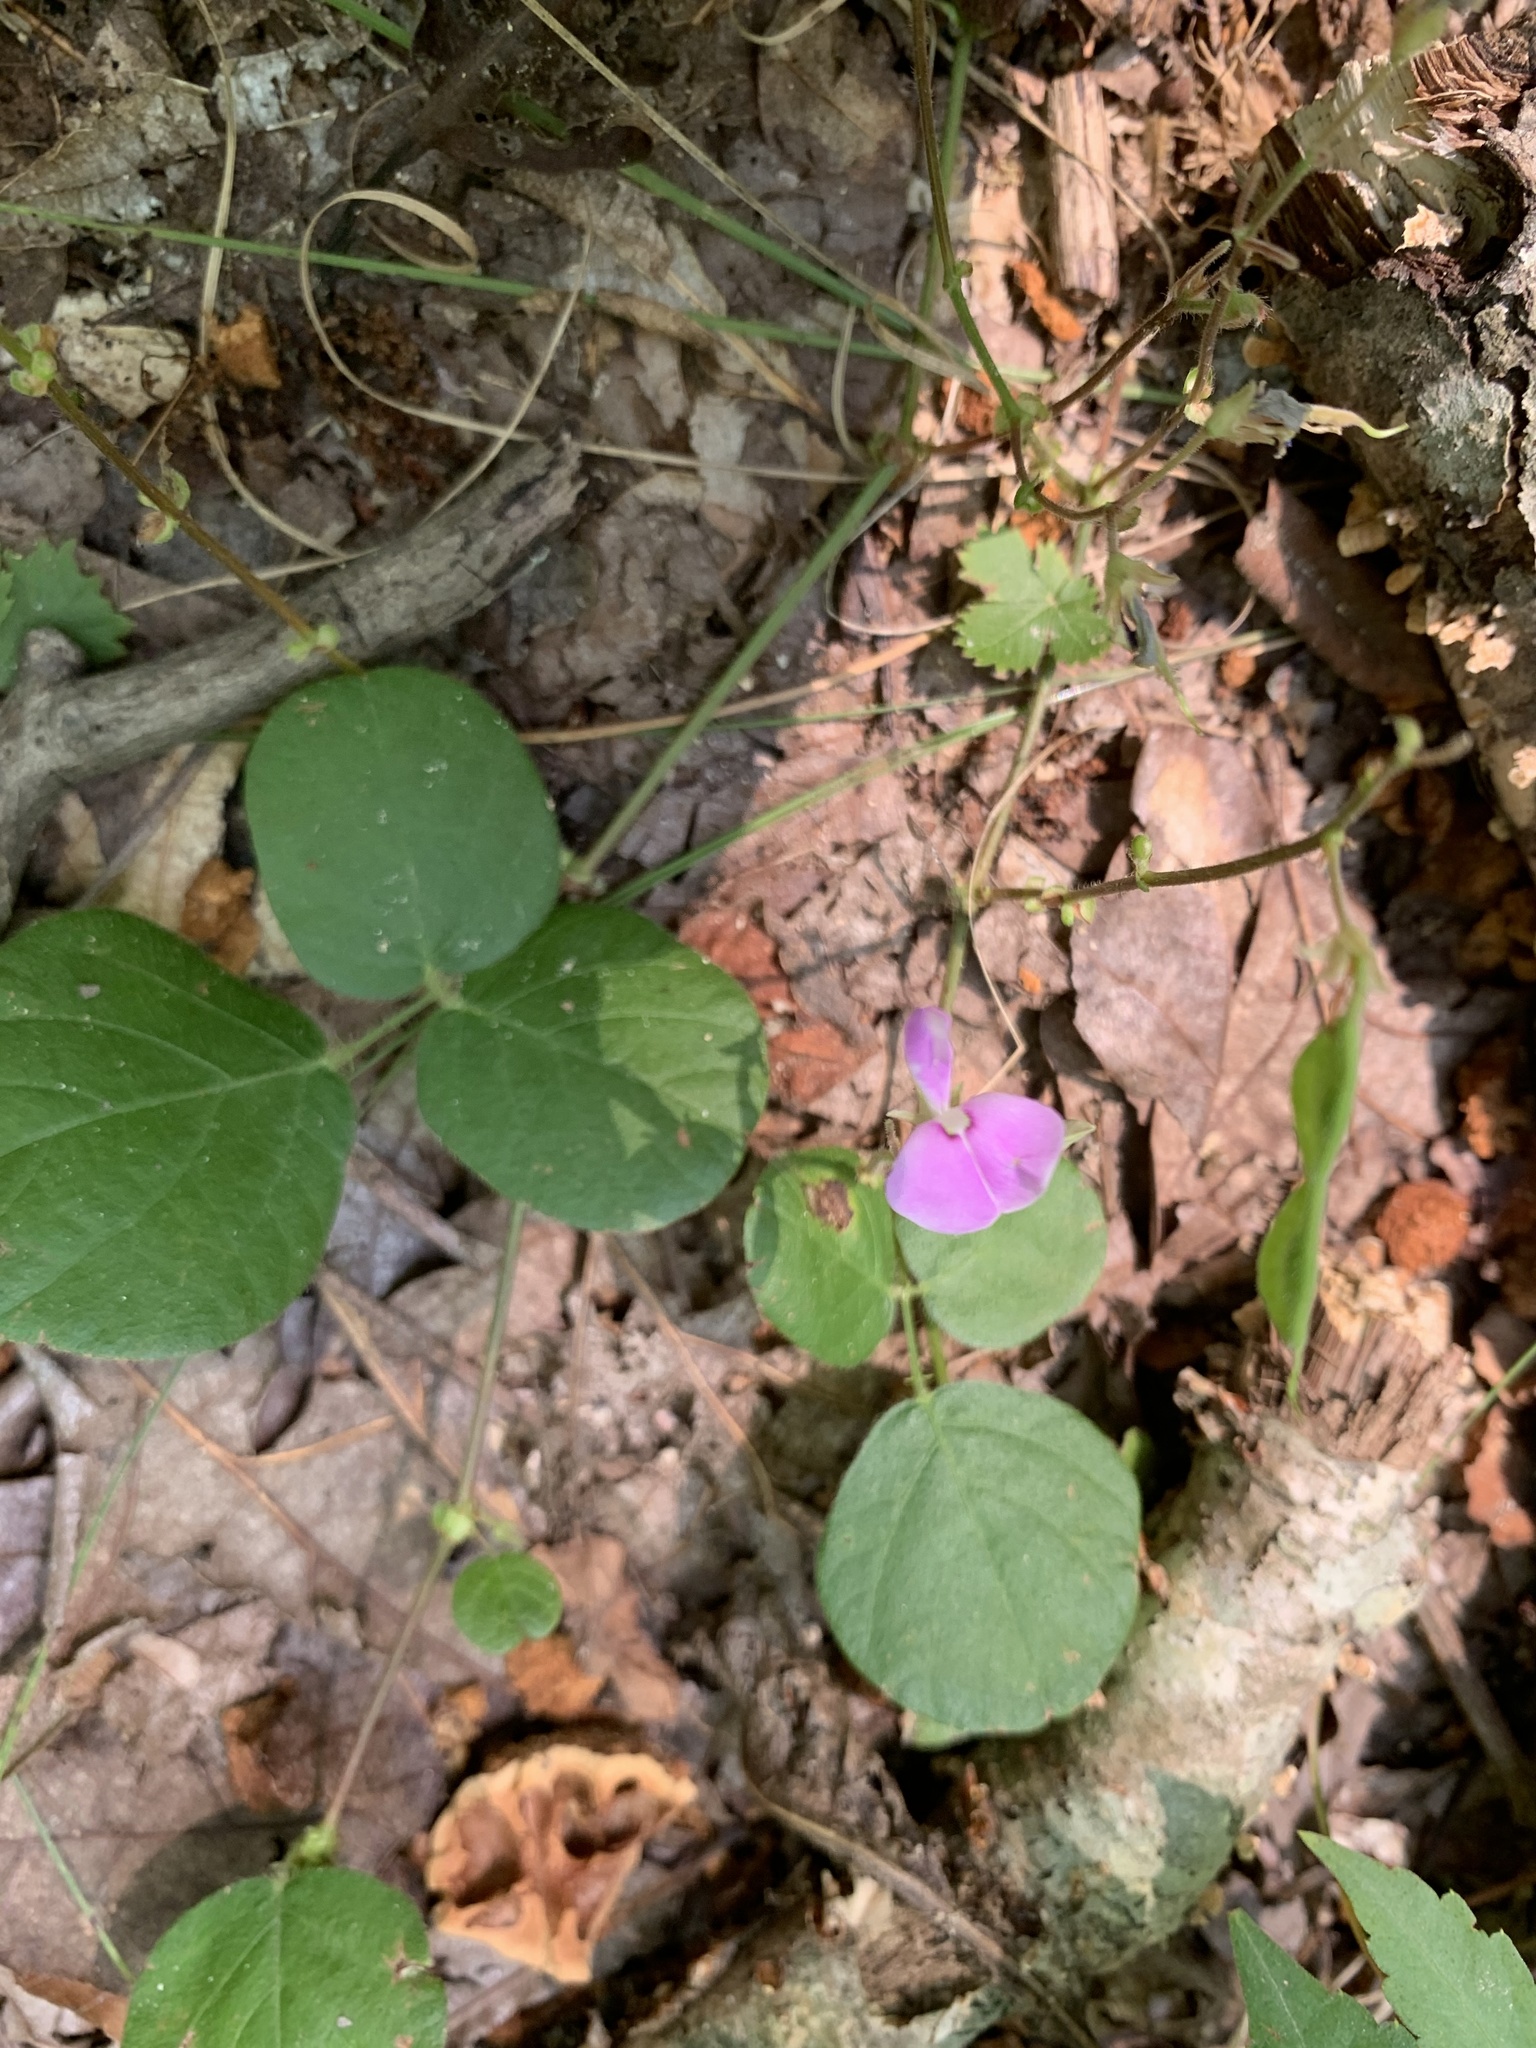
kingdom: Plantae
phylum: Tracheophyta
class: Magnoliopsida
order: Fabales
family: Fabaceae
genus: Desmodium
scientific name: Desmodium rotundifolium
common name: Dollarleaf
